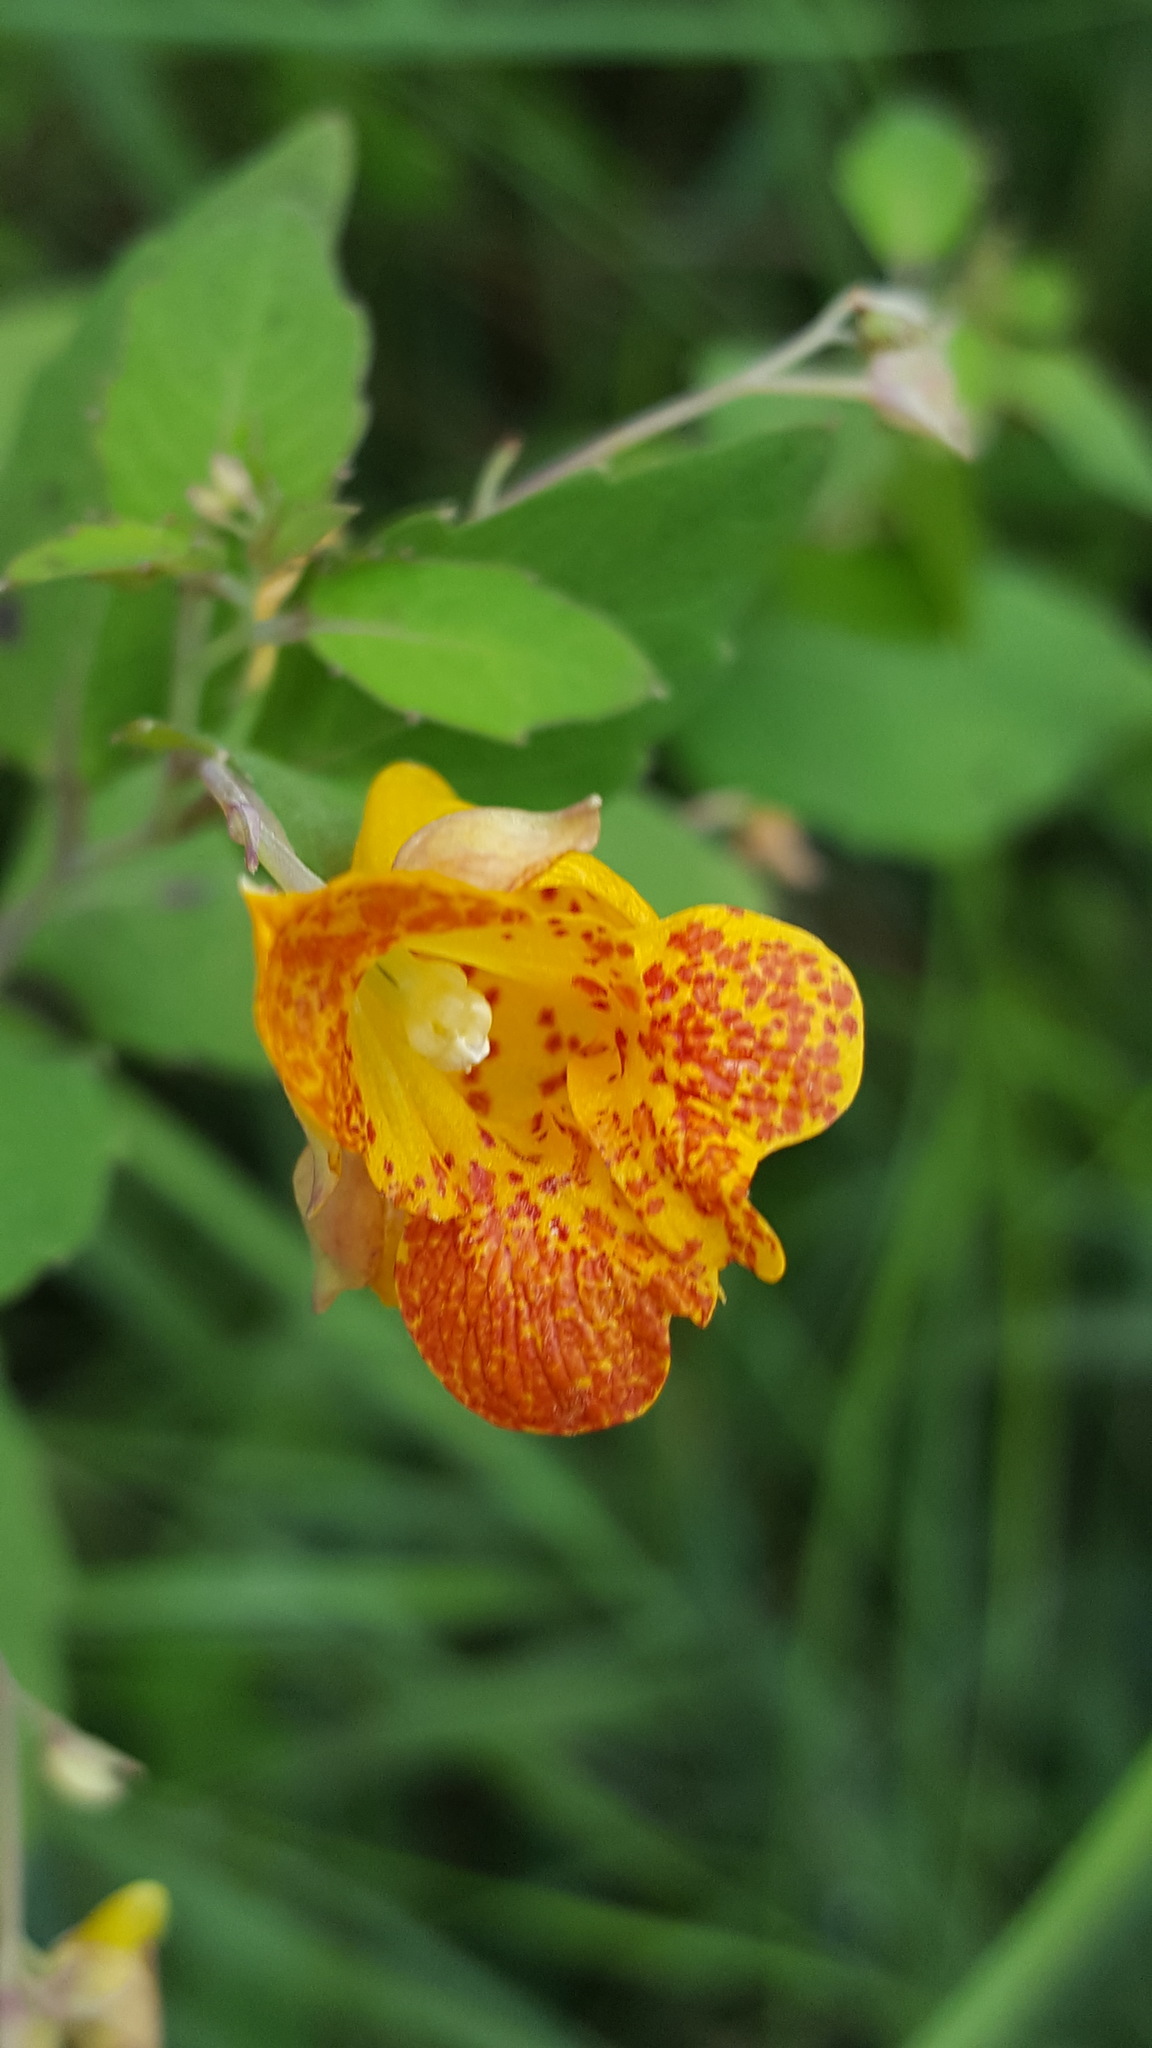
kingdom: Plantae
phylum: Tracheophyta
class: Magnoliopsida
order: Ericales
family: Balsaminaceae
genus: Impatiens
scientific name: Impatiens capensis
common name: Orange balsam
